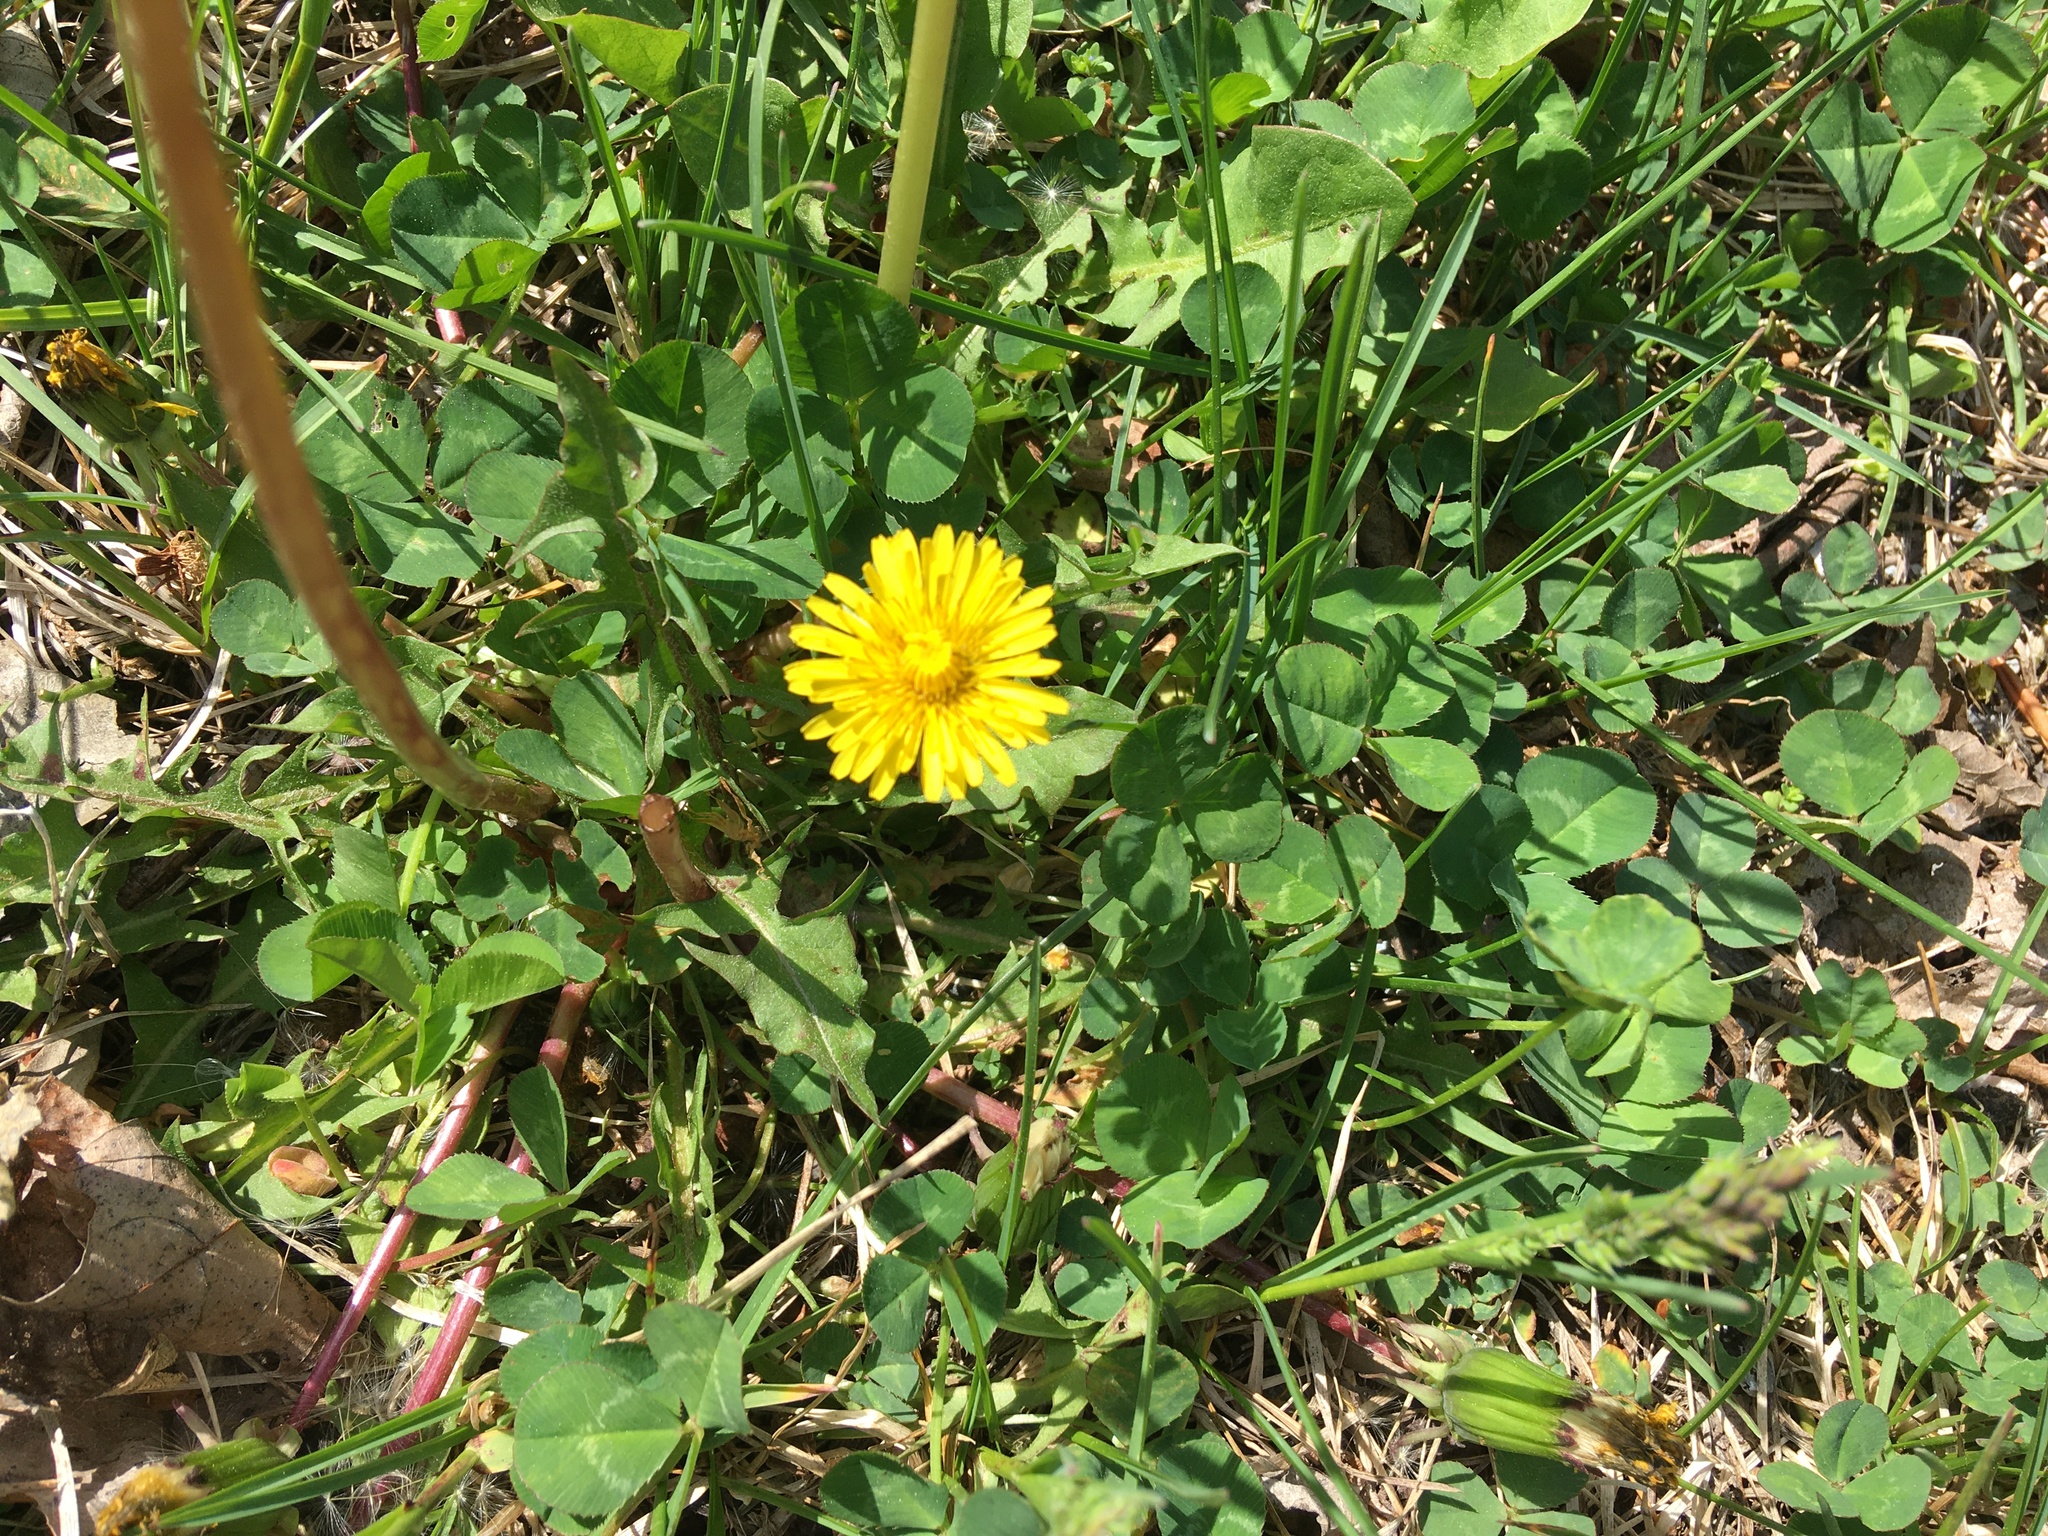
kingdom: Plantae
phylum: Tracheophyta
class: Magnoliopsida
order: Asterales
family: Asteraceae
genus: Taraxacum
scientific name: Taraxacum officinale
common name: Common dandelion
